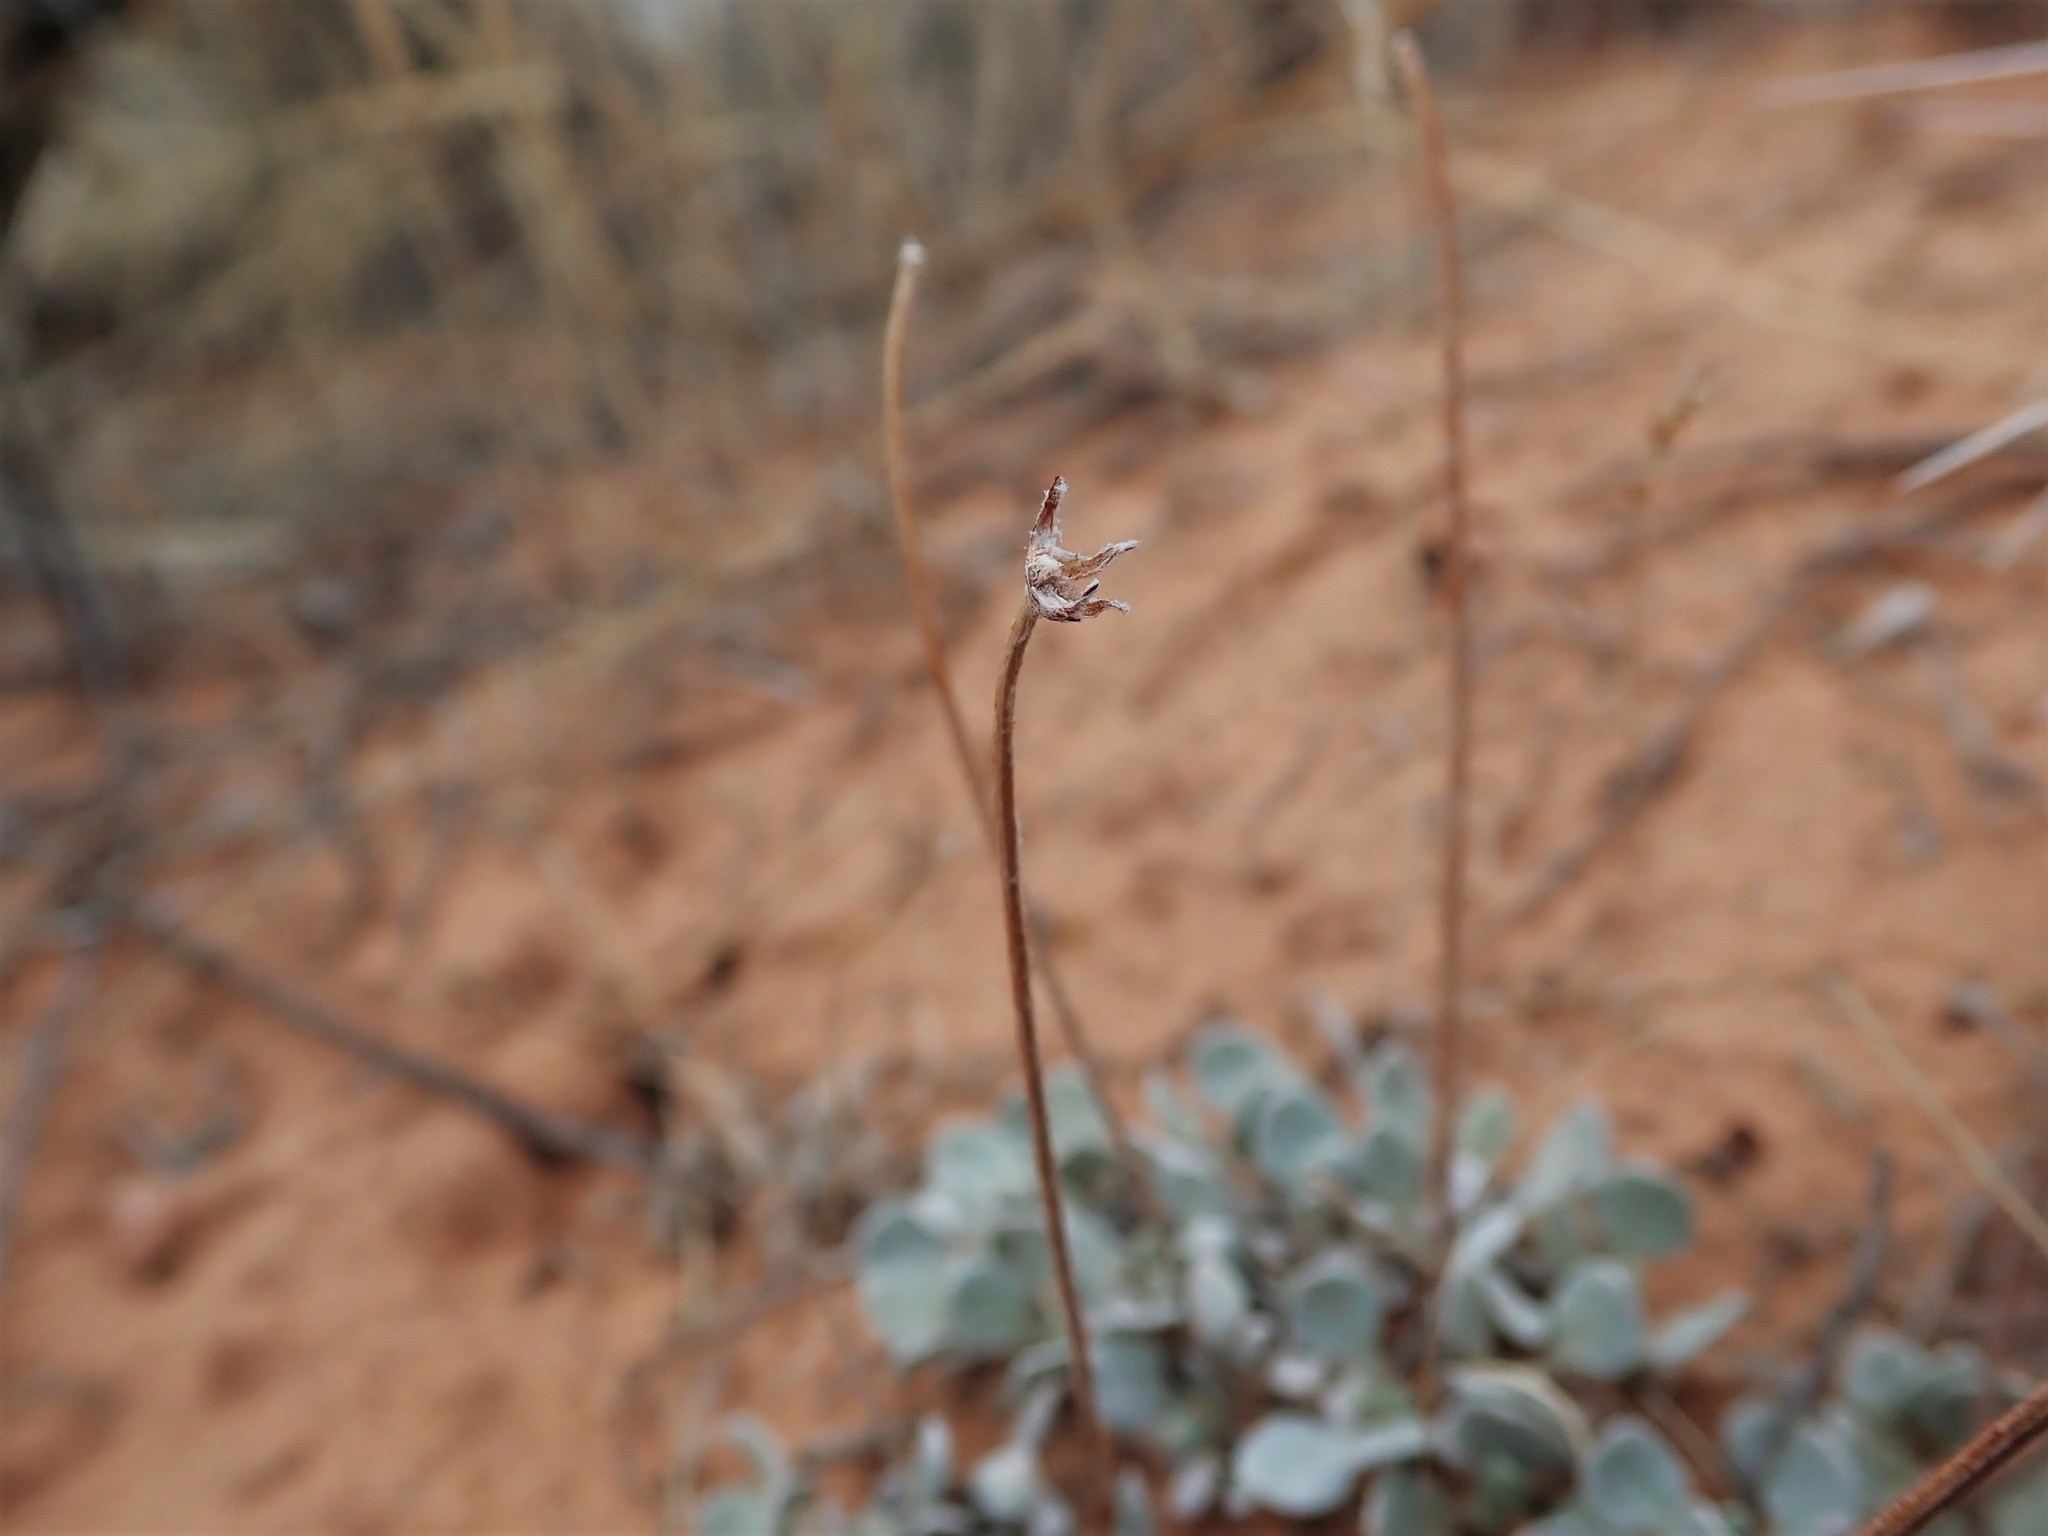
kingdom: Plantae
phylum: Tracheophyta
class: Magnoliopsida
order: Caryophyllales
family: Polygonaceae
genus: Eriogonum
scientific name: Eriogonum ovalifolium
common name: Cushion buckwheat
